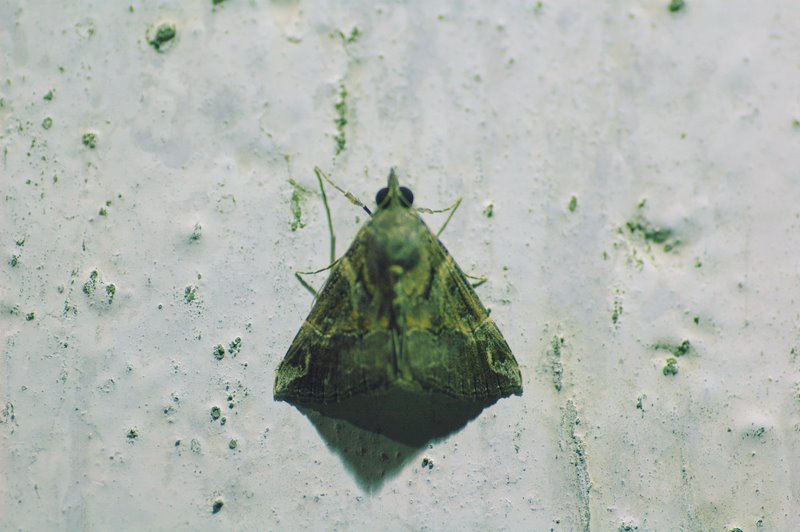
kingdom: Animalia
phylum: Arthropoda
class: Insecta
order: Lepidoptera
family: Erebidae
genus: Hypena
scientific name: Hypena commixtalis
